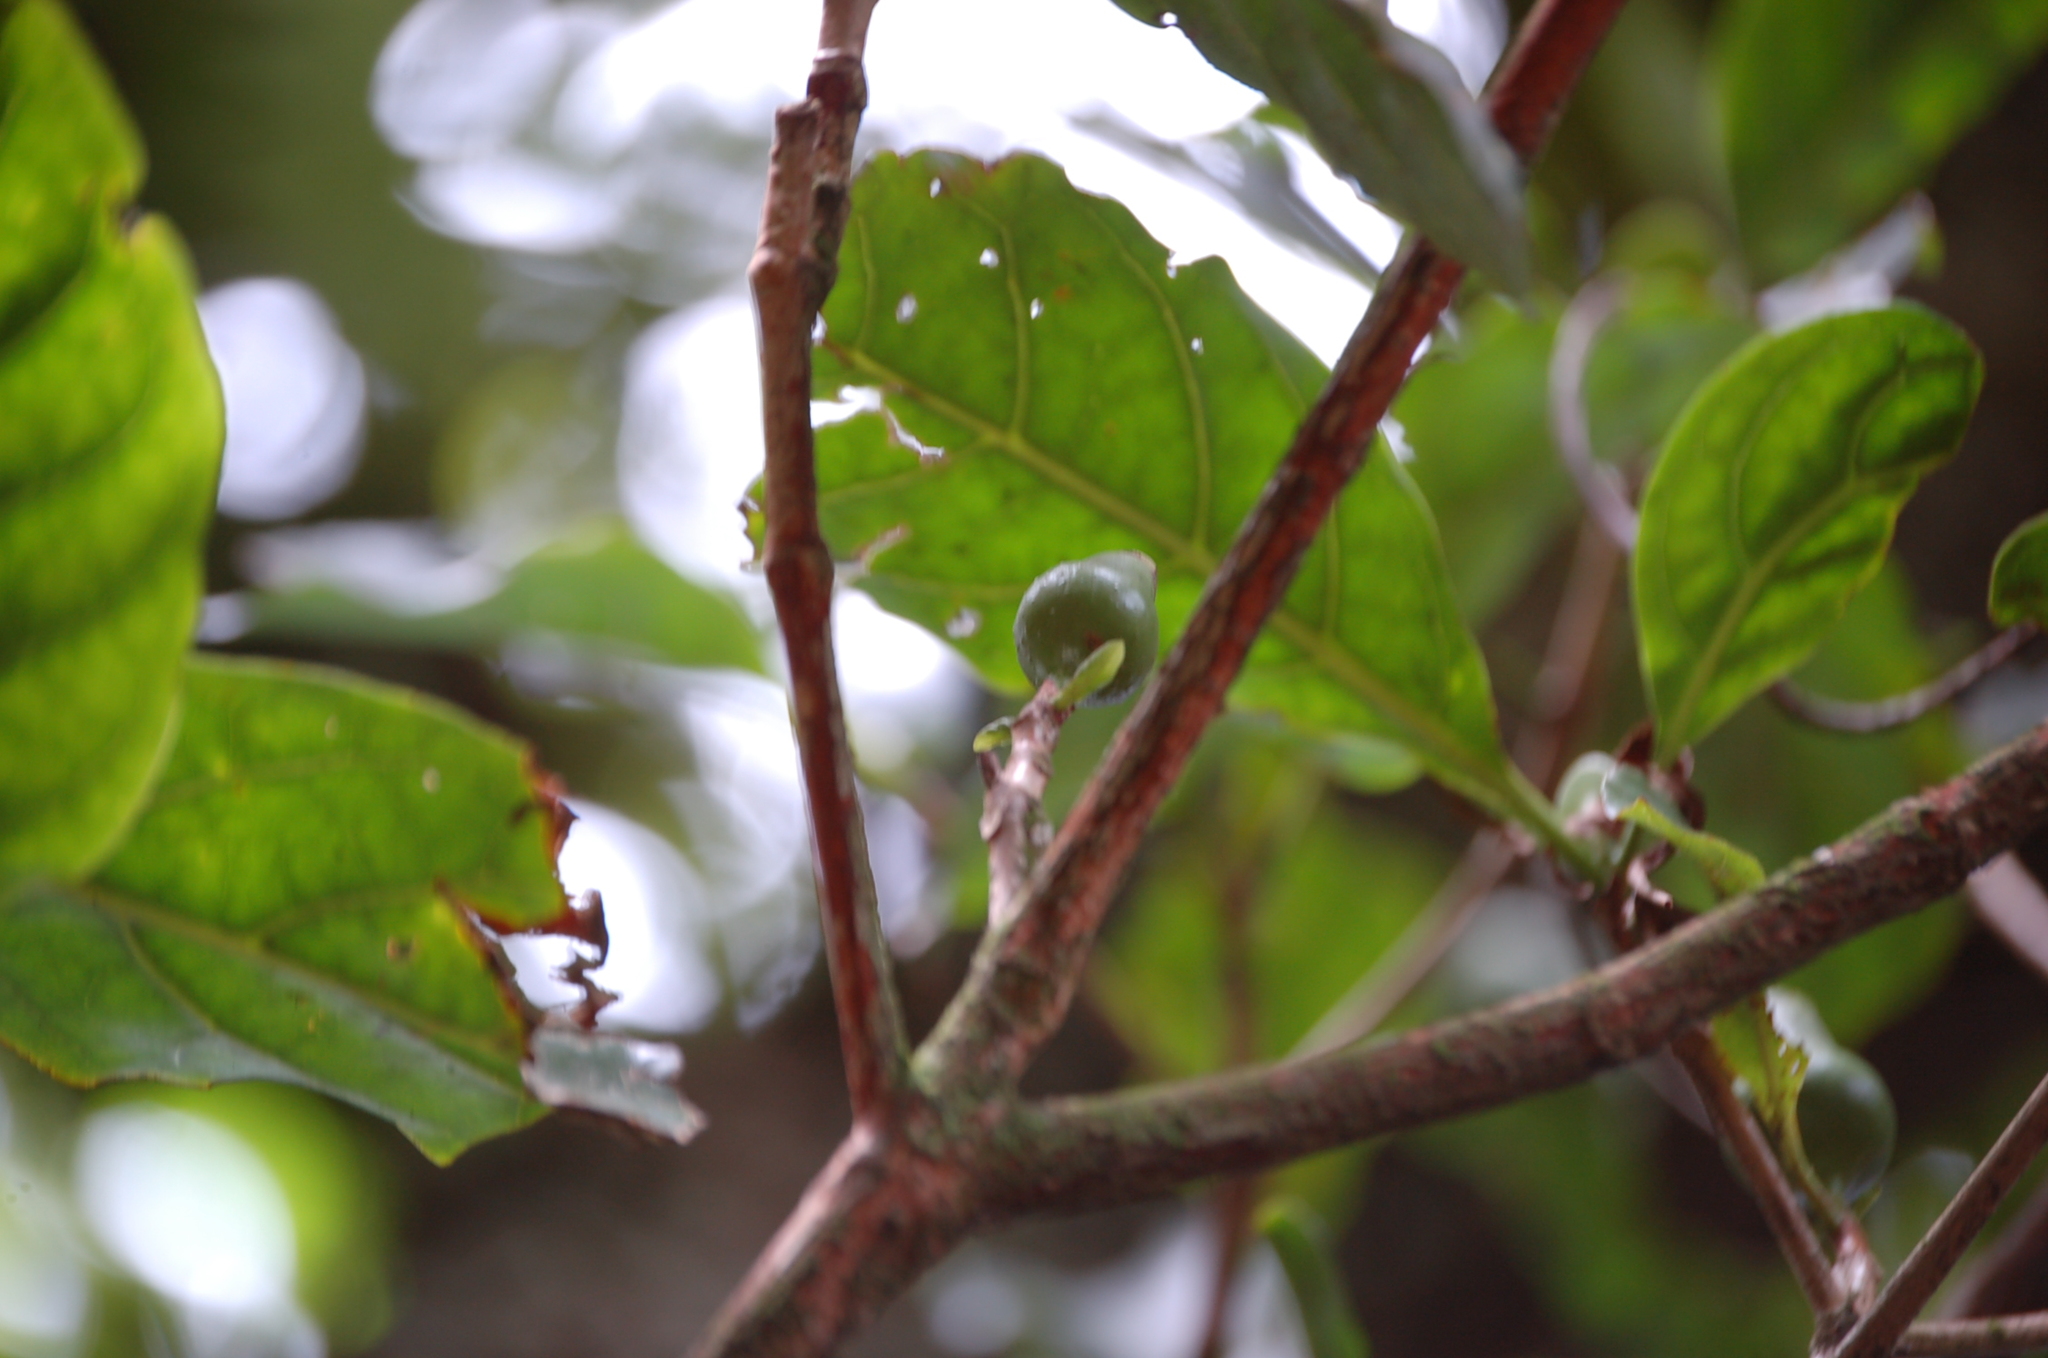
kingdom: Plantae
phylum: Tracheophyta
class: Magnoliopsida
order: Gentianales
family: Rubiaceae
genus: Glossostipula
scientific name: Glossostipula concinna
